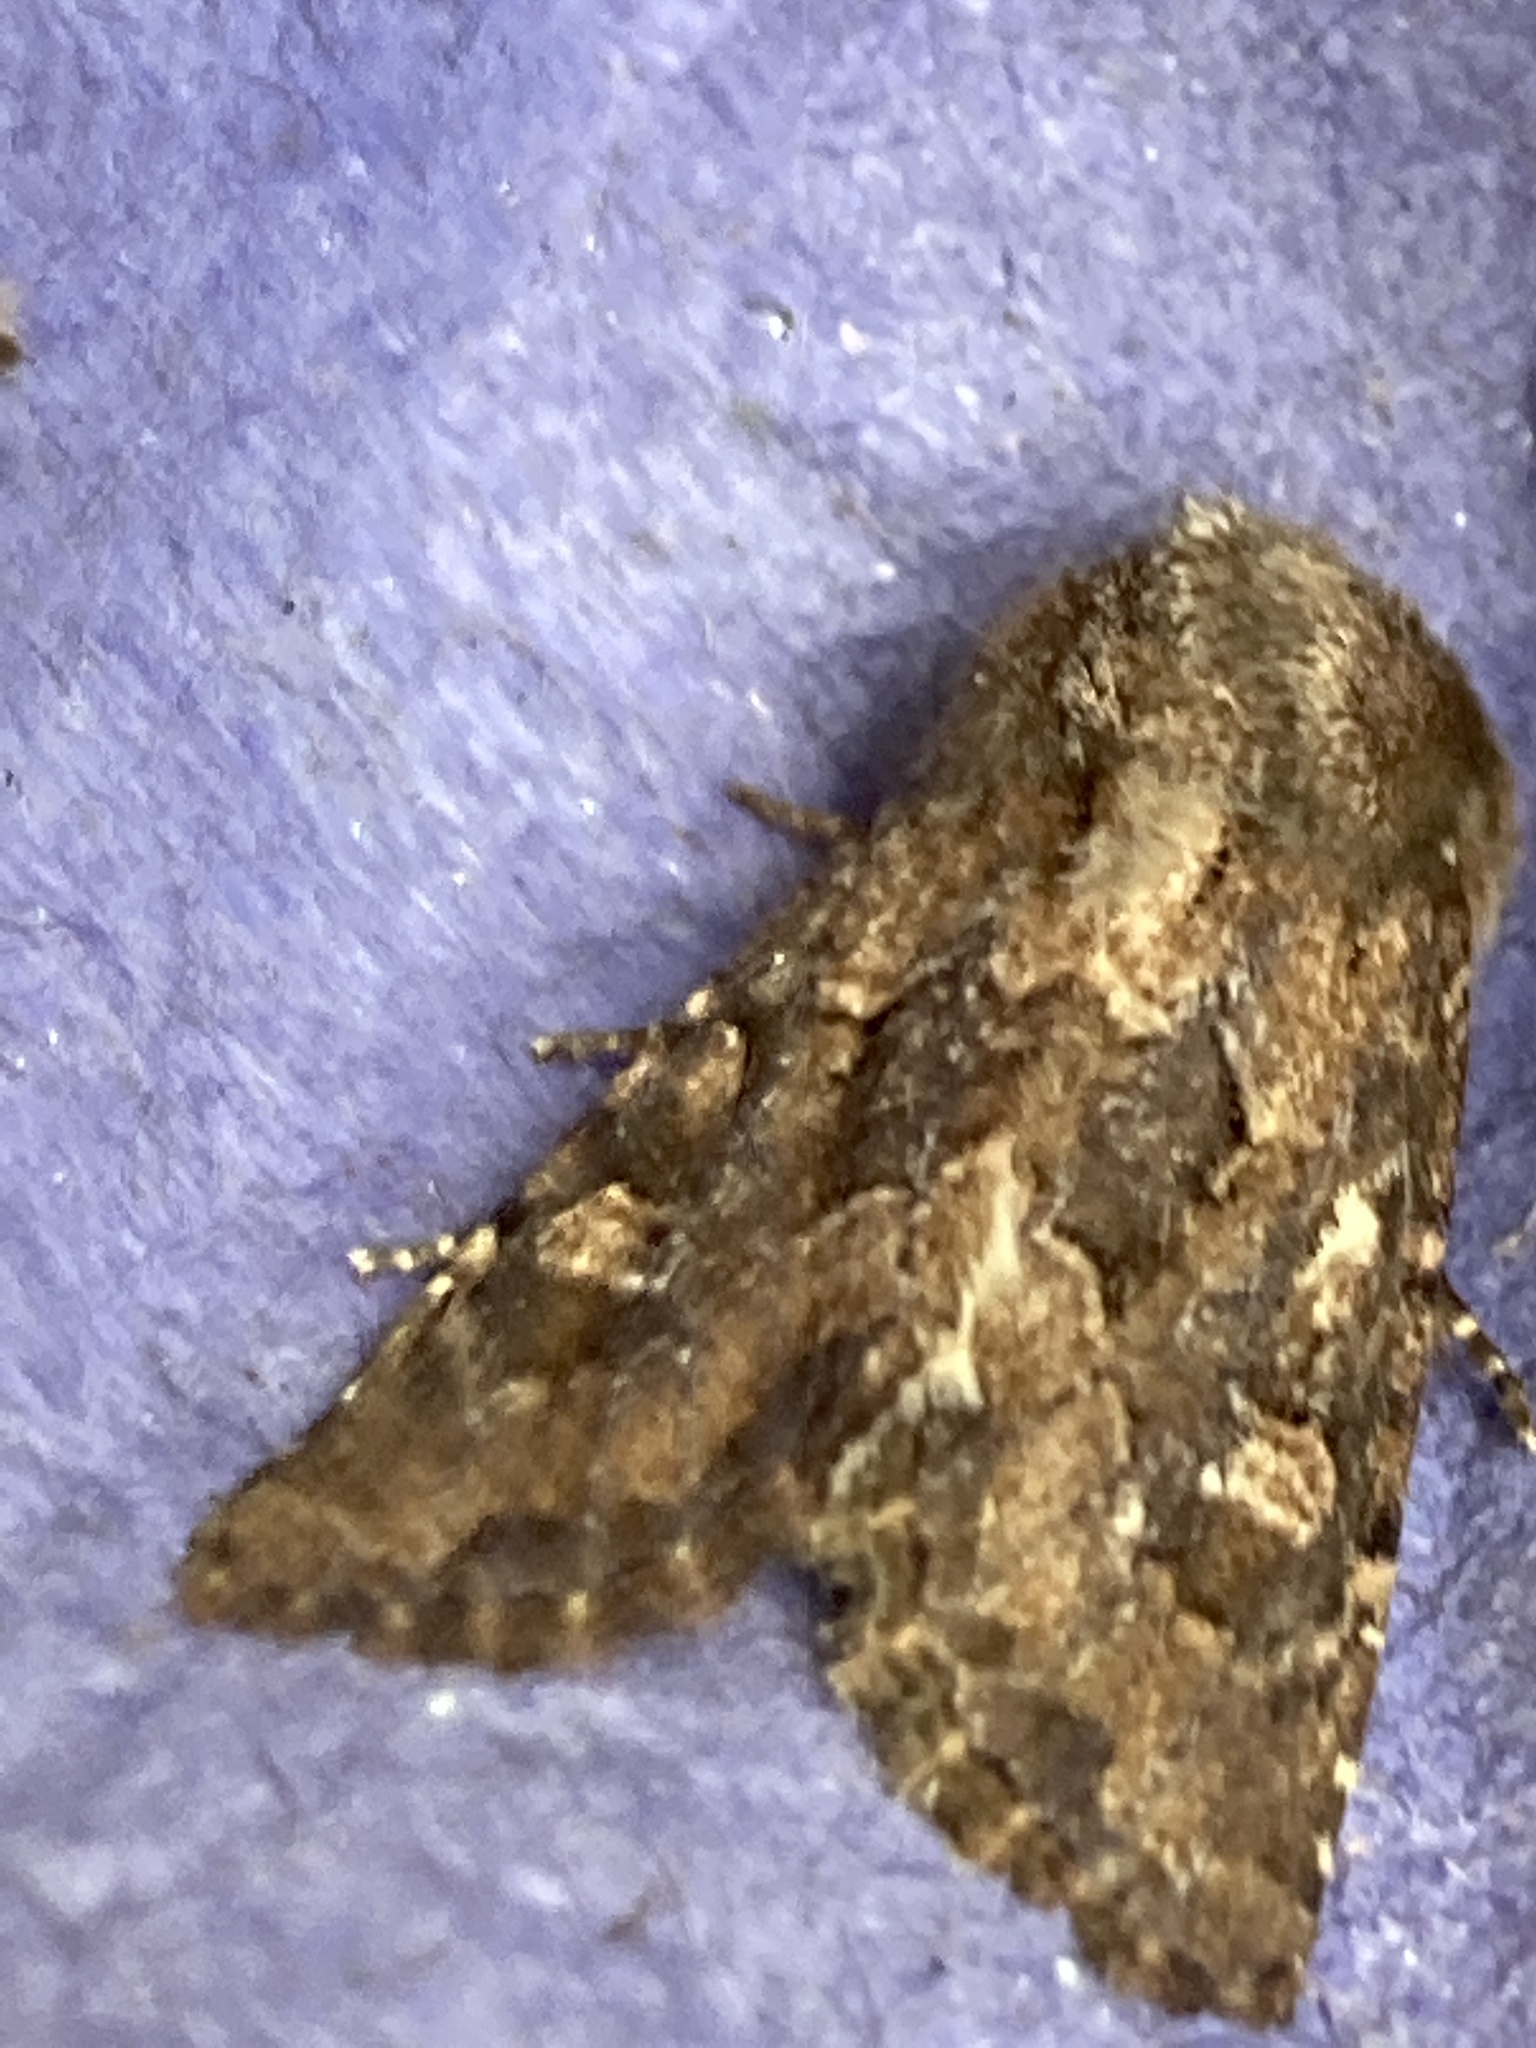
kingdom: Animalia
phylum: Arthropoda
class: Insecta
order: Lepidoptera
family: Noctuidae
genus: Luperina
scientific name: Luperina testacea
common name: Flounced rustic
